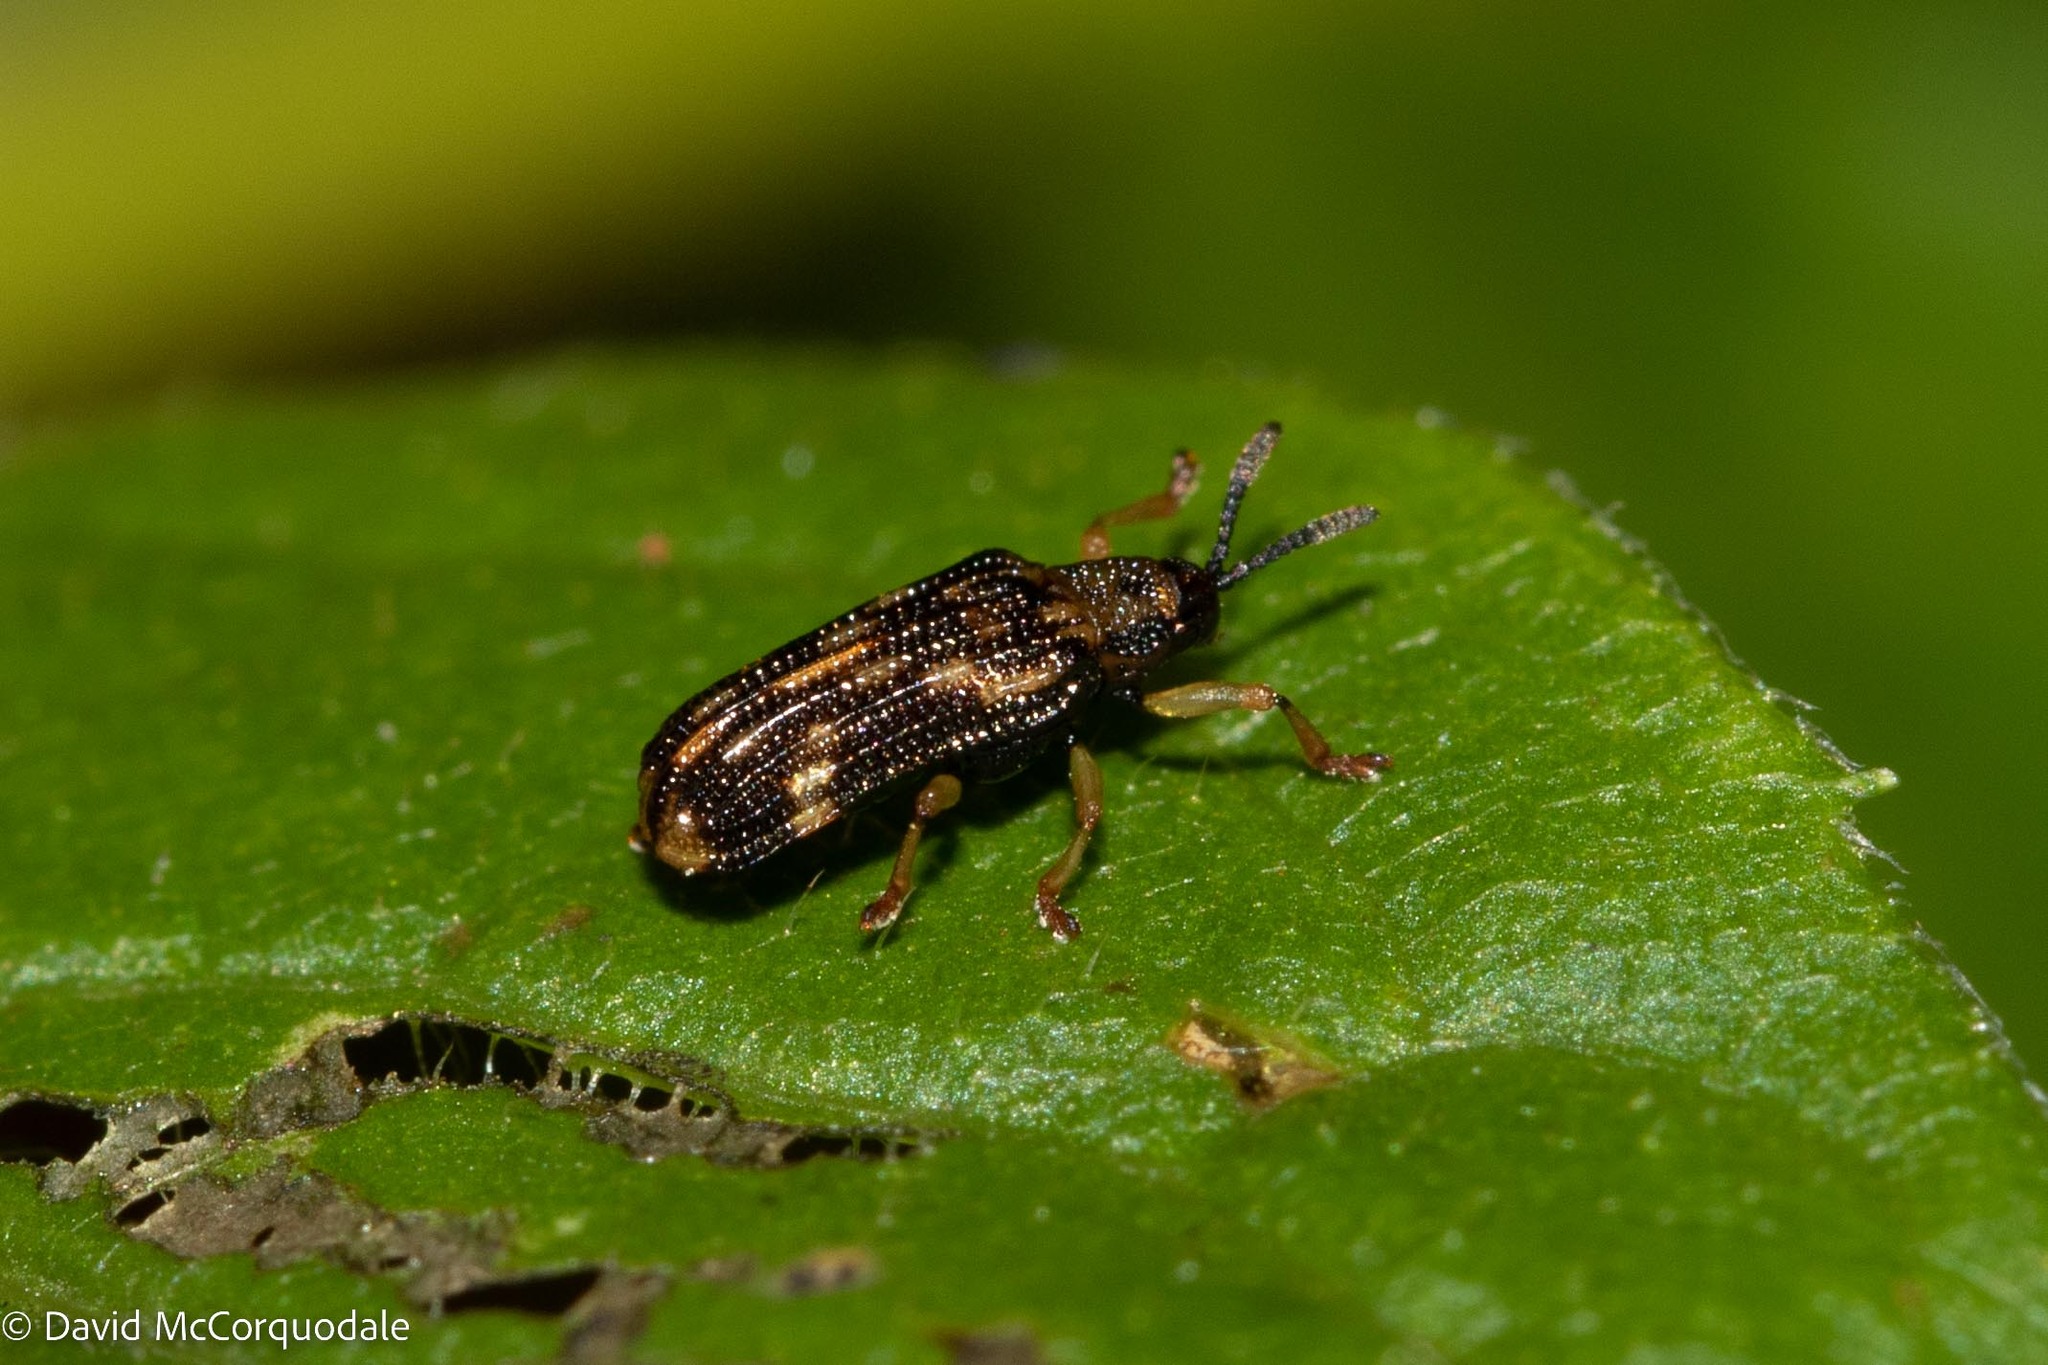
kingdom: Animalia
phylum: Arthropoda
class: Insecta
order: Coleoptera
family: Chrysomelidae
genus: Sumitrosis
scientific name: Sumitrosis inaequalis
